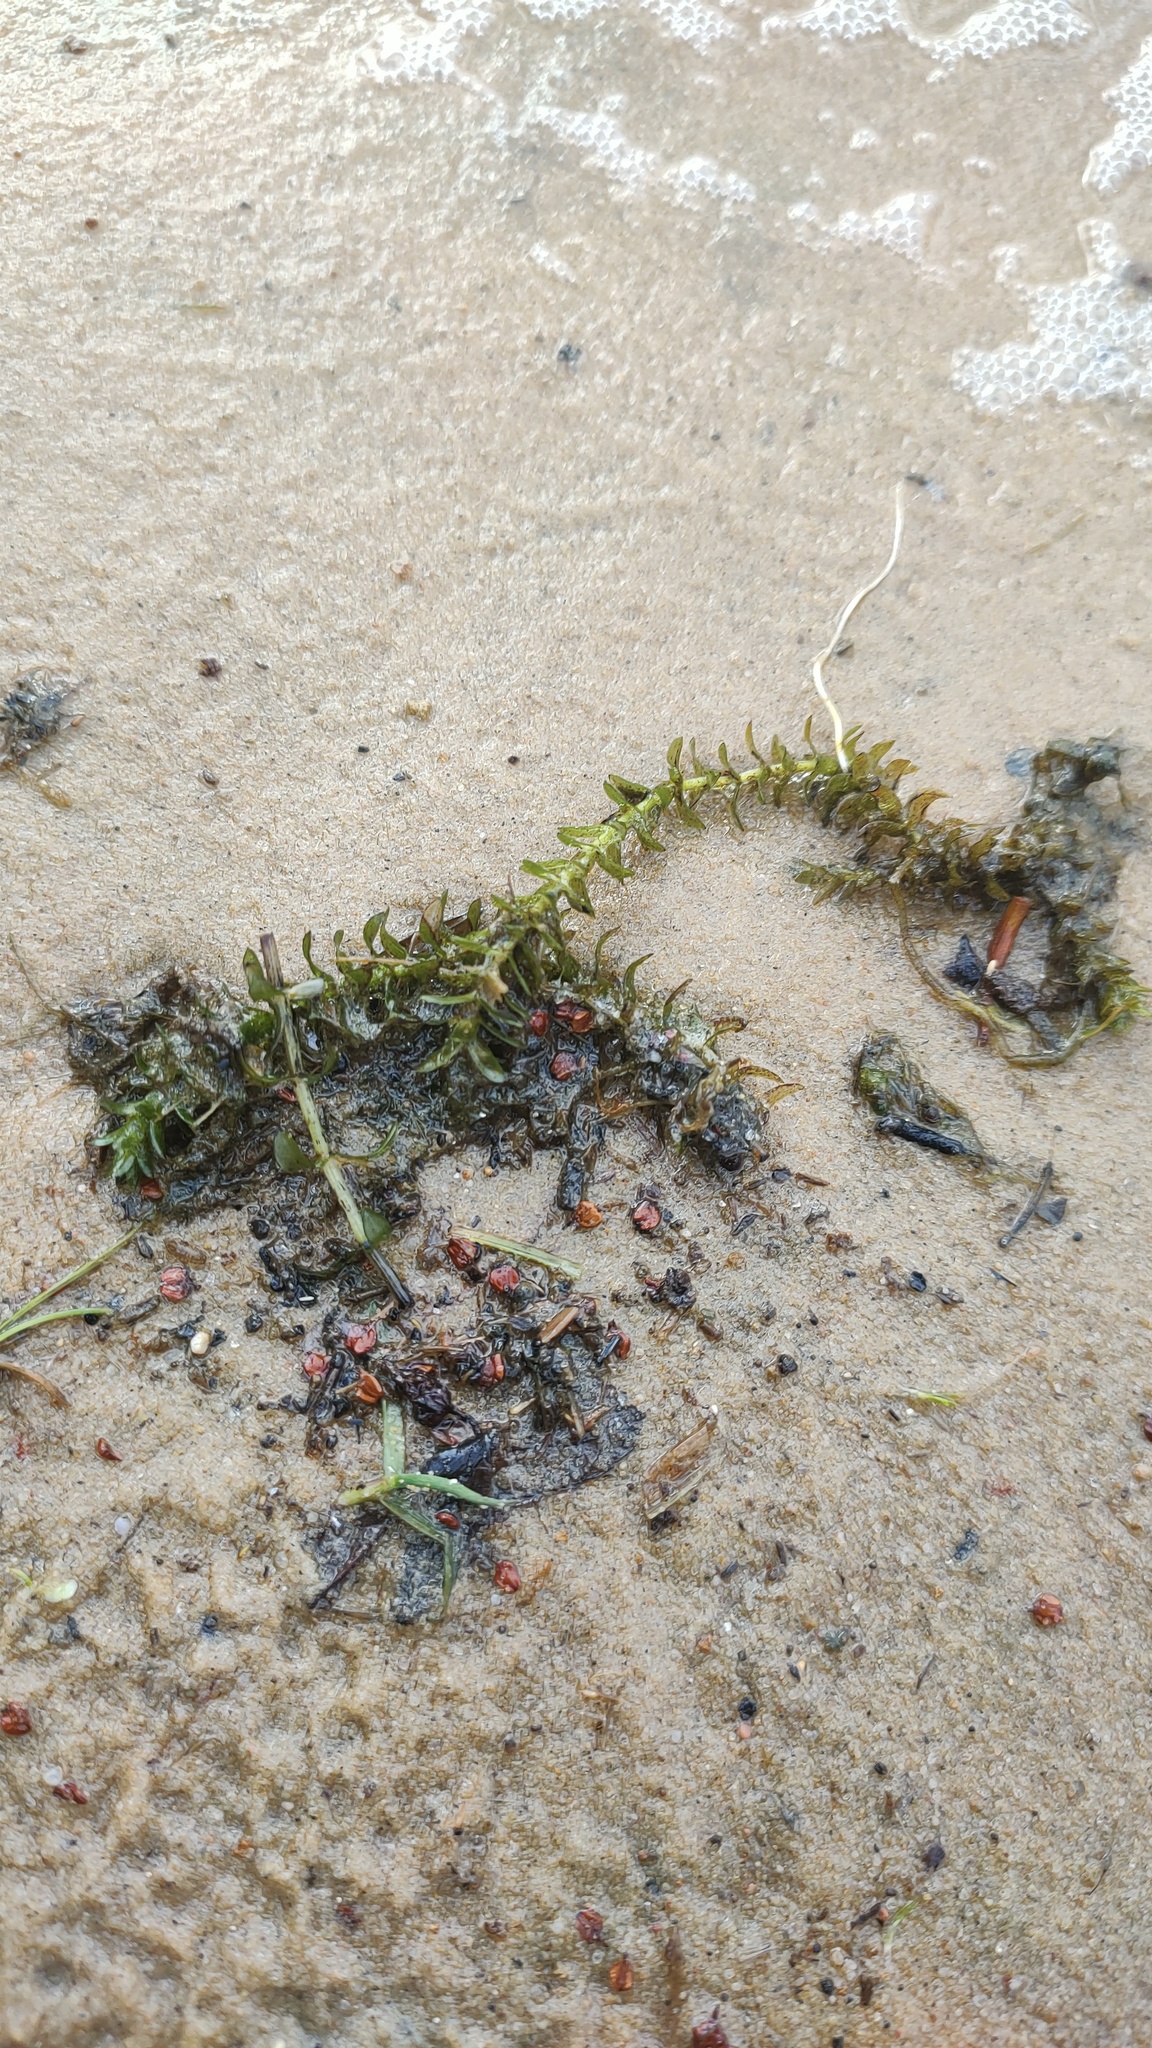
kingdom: Plantae
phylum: Tracheophyta
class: Liliopsida
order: Alismatales
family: Hydrocharitaceae
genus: Elodea
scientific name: Elodea canadensis
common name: Canadian waterweed
